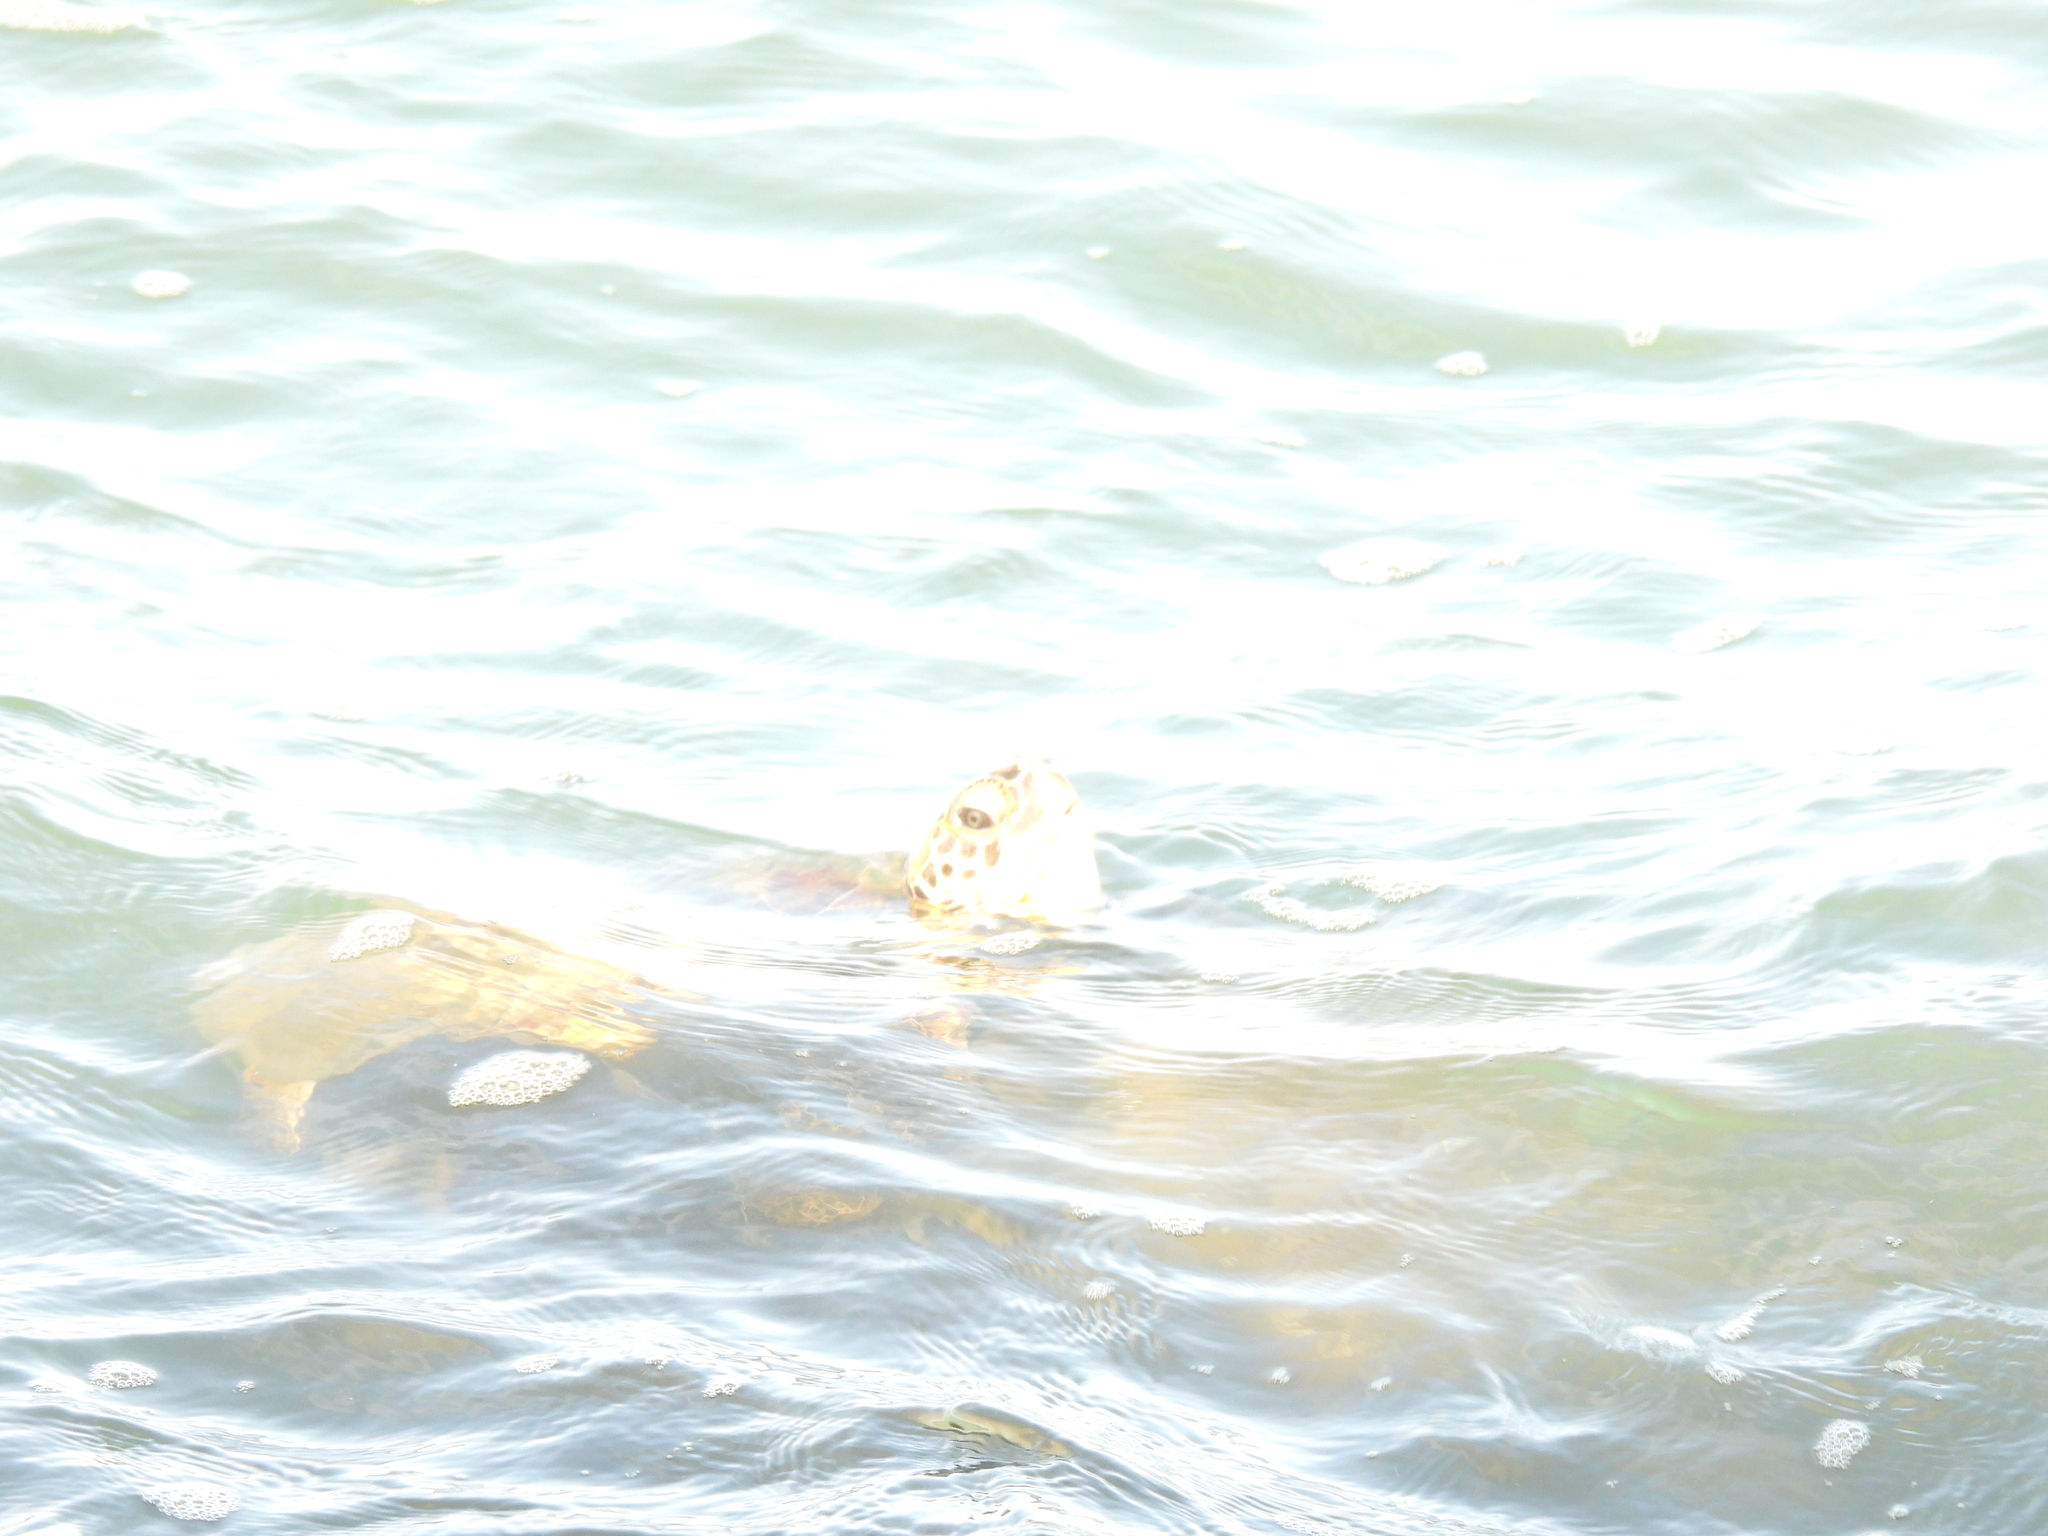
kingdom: Animalia
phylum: Chordata
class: Testudines
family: Cheloniidae
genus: Chelonia
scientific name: Chelonia mydas
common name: Green turtle
